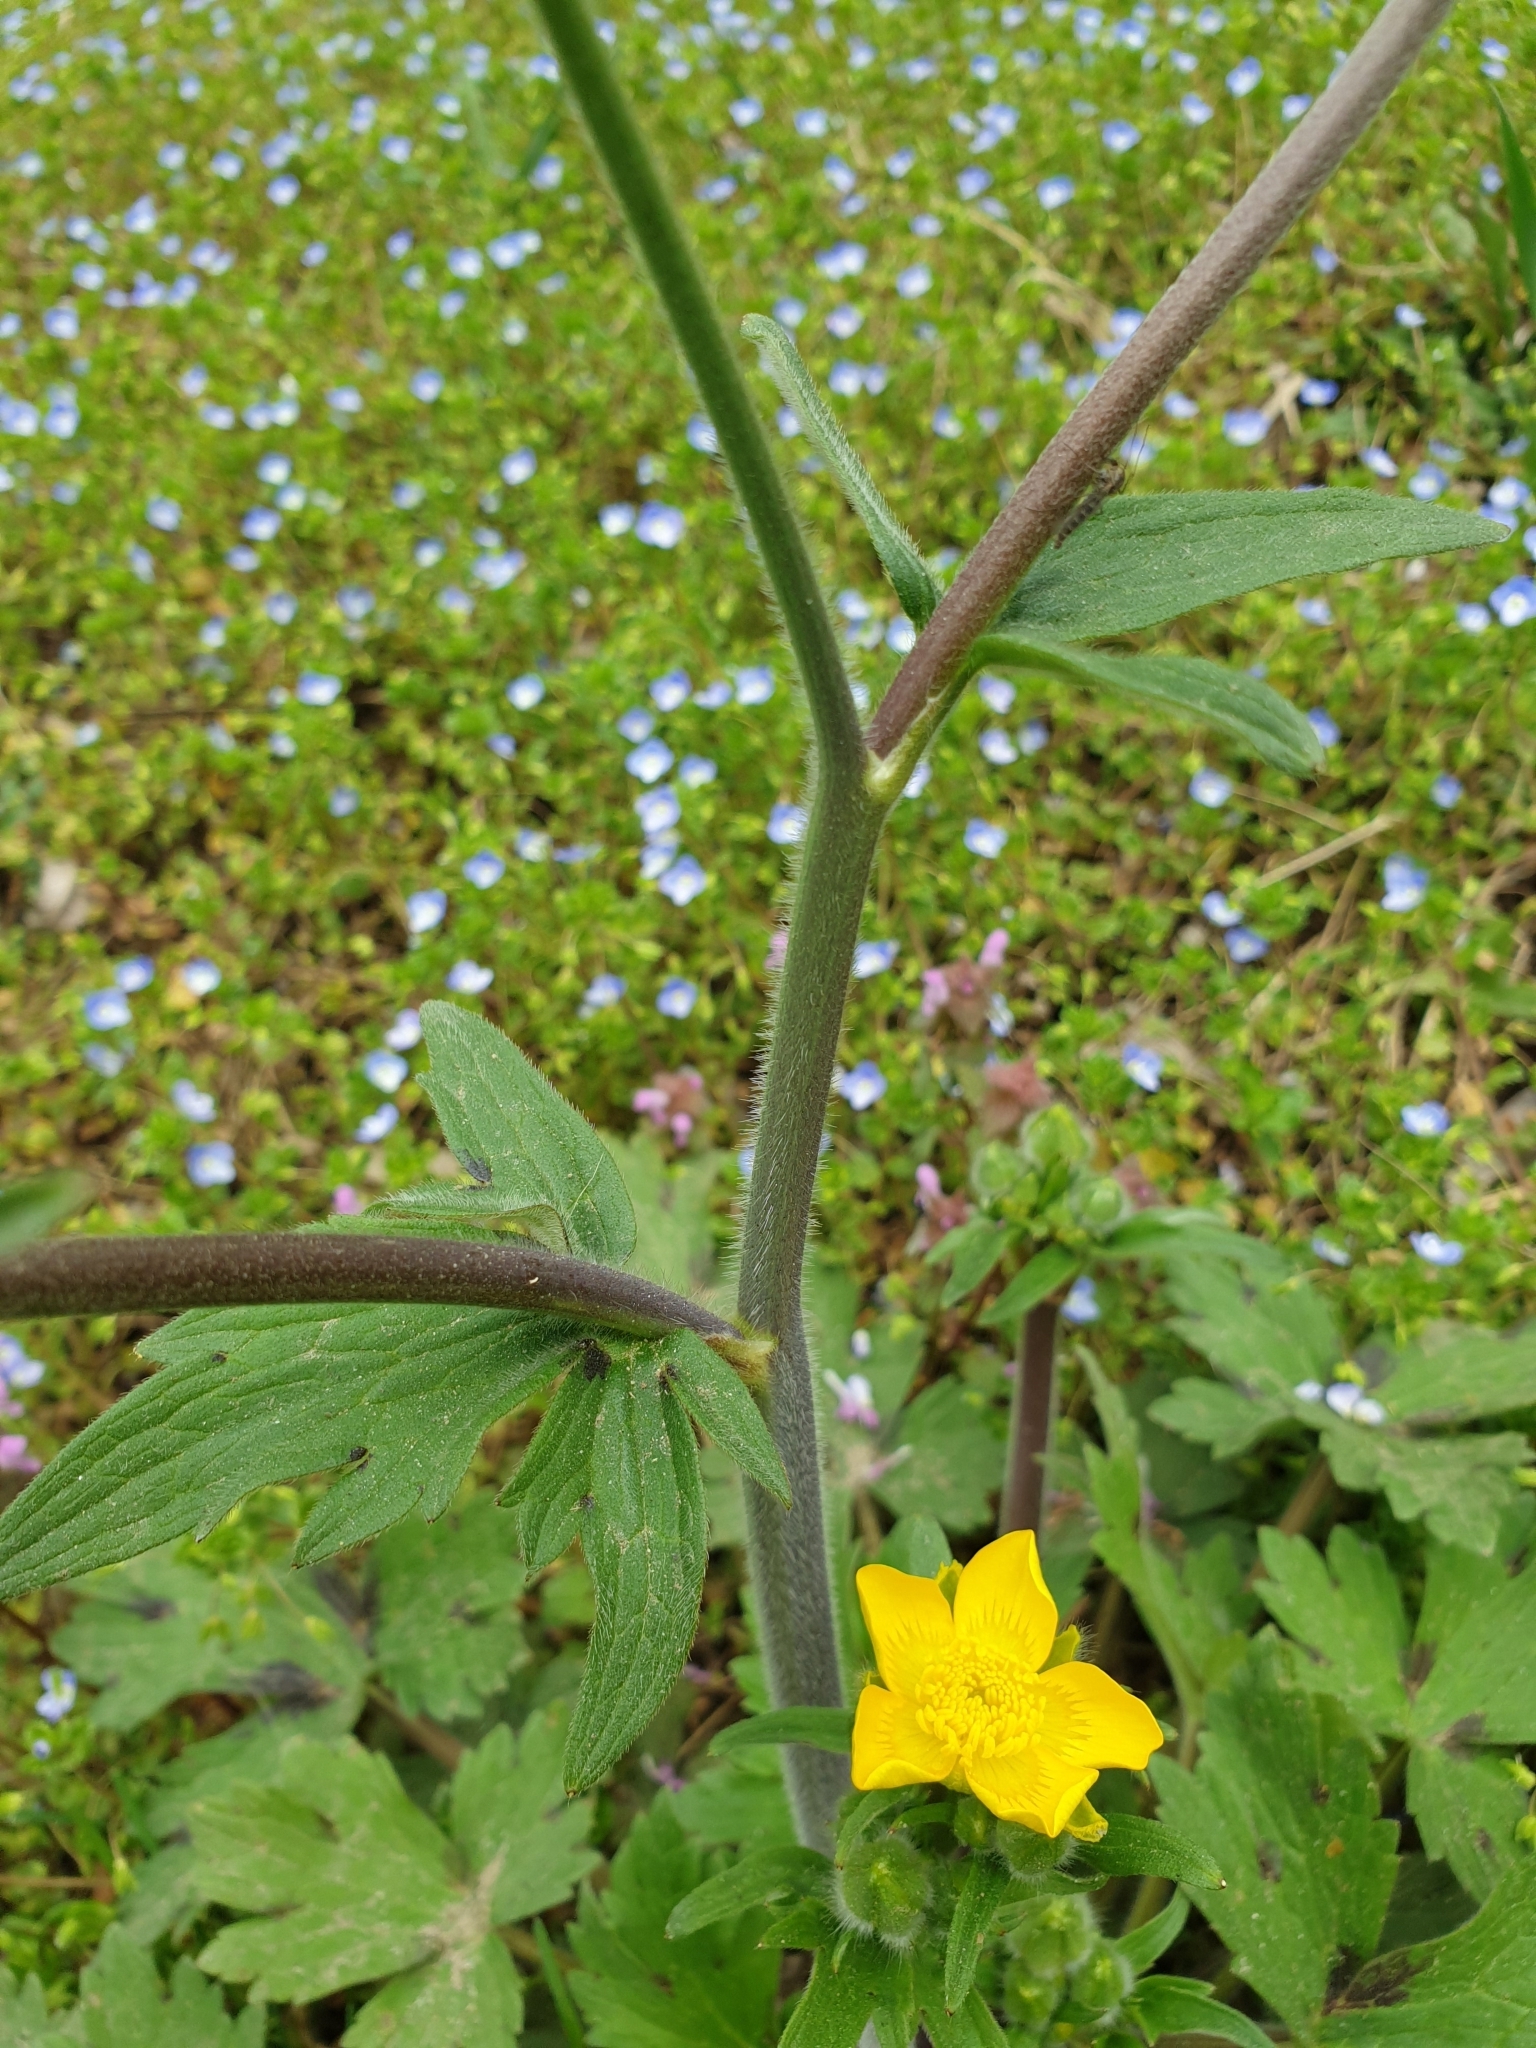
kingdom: Plantae
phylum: Tracheophyta
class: Magnoliopsida
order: Ranunculales
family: Ranunculaceae
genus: Ranunculus
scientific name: Ranunculus constantinopolitanus
